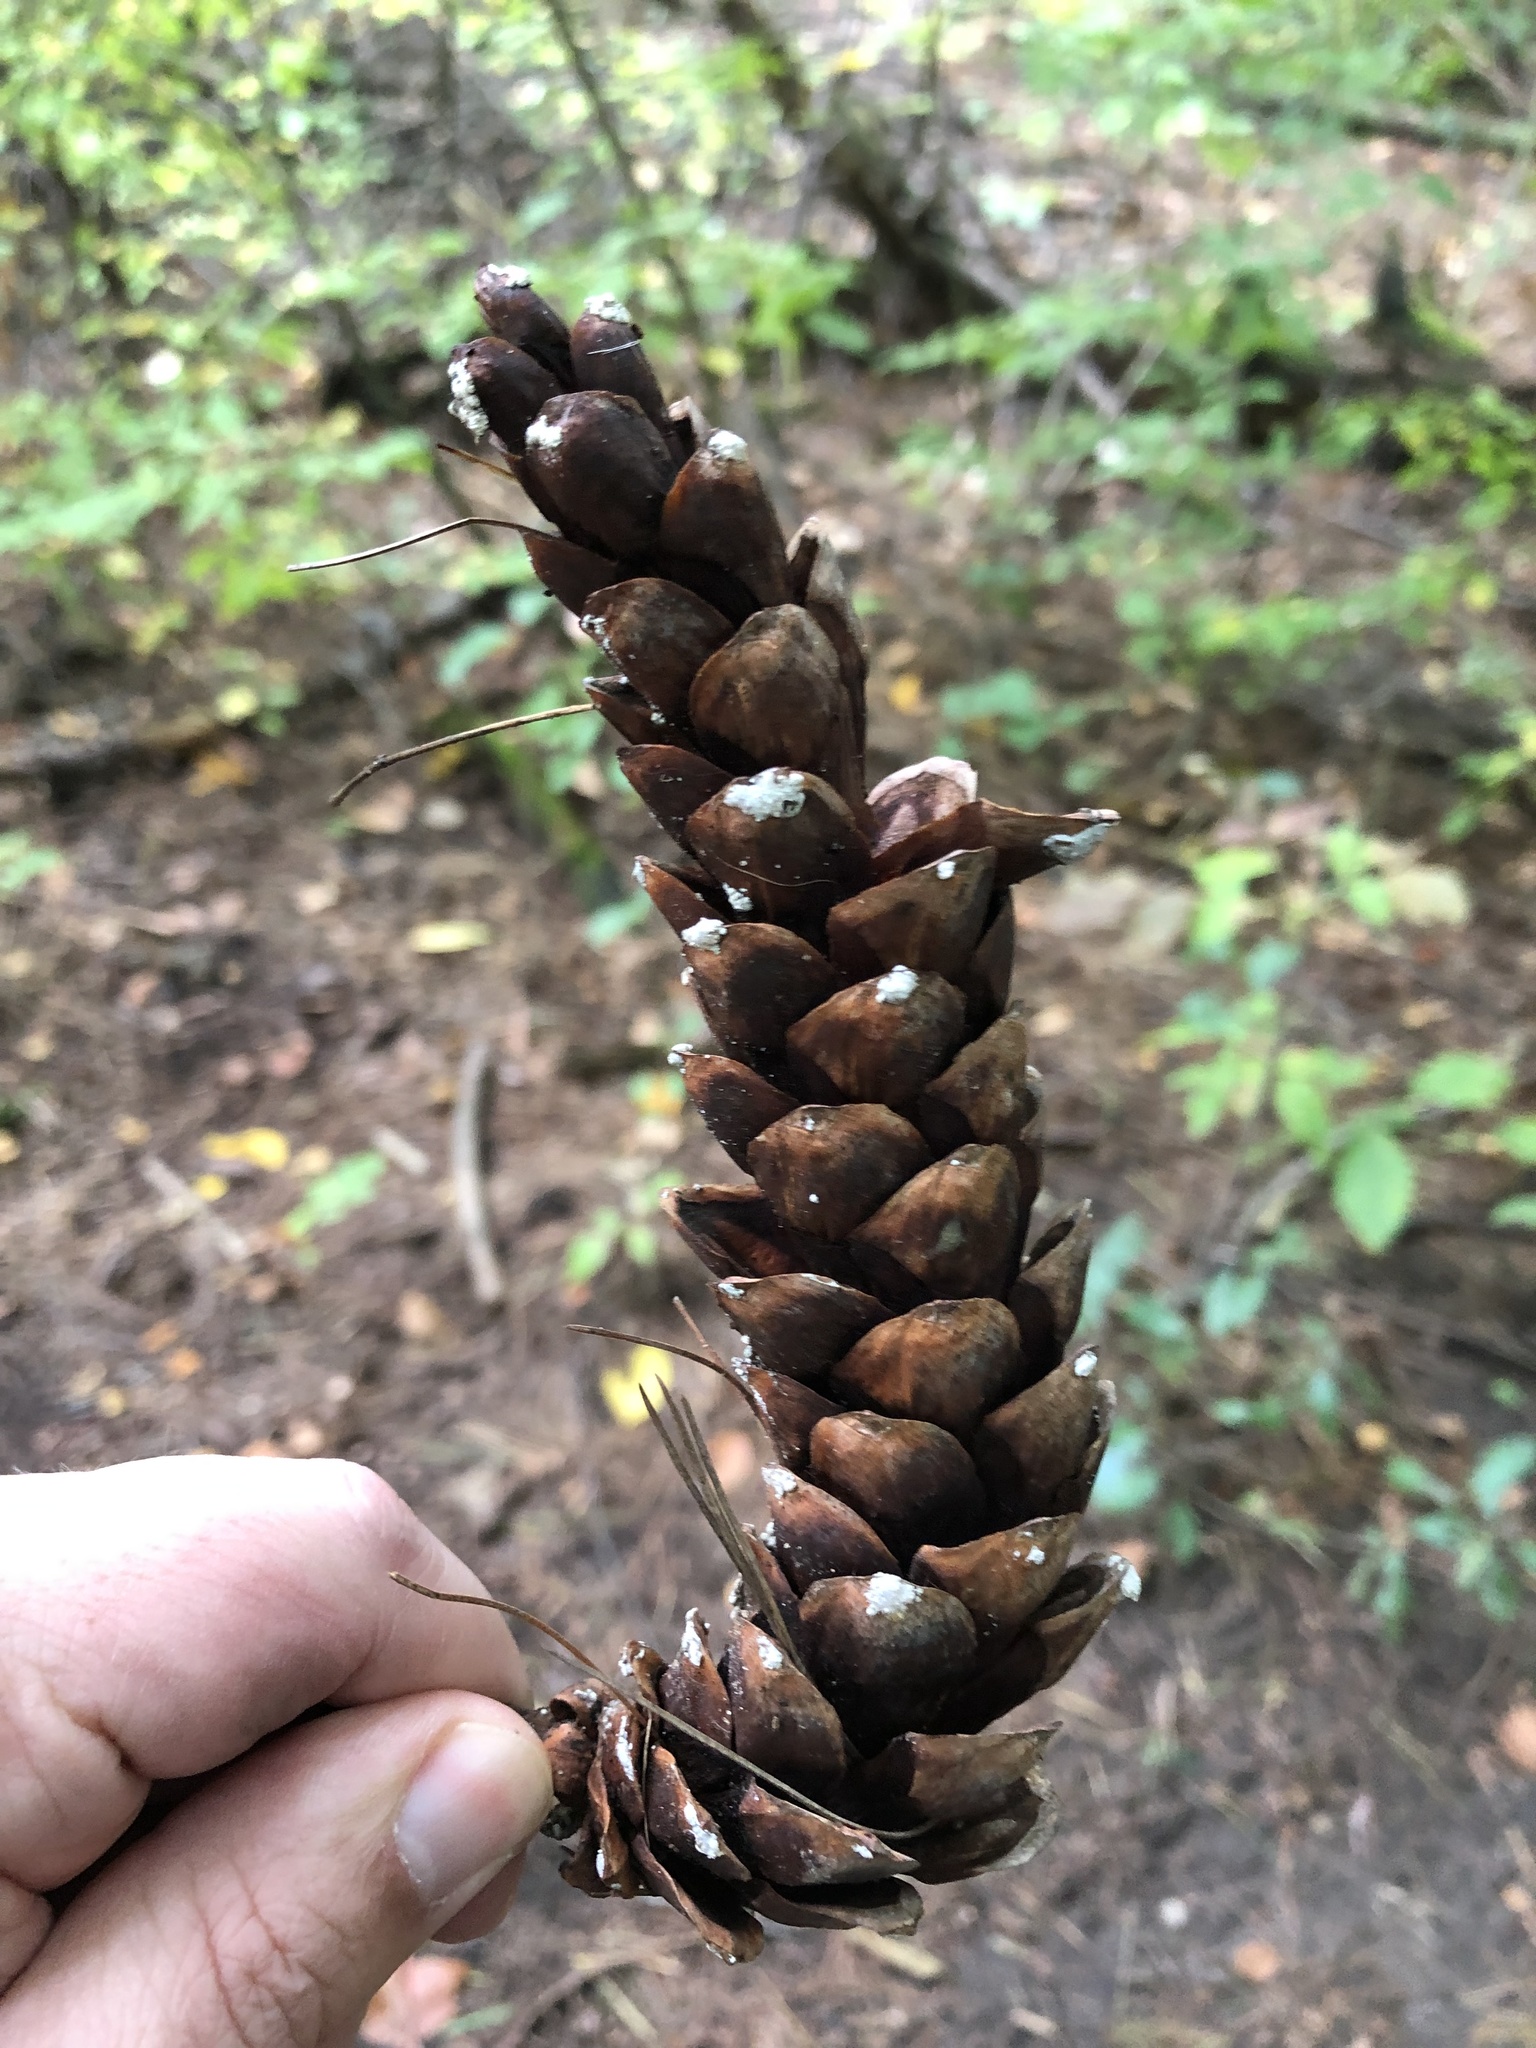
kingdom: Plantae
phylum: Tracheophyta
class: Pinopsida
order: Pinales
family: Pinaceae
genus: Pinus
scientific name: Pinus strobus
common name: Weymouth pine
